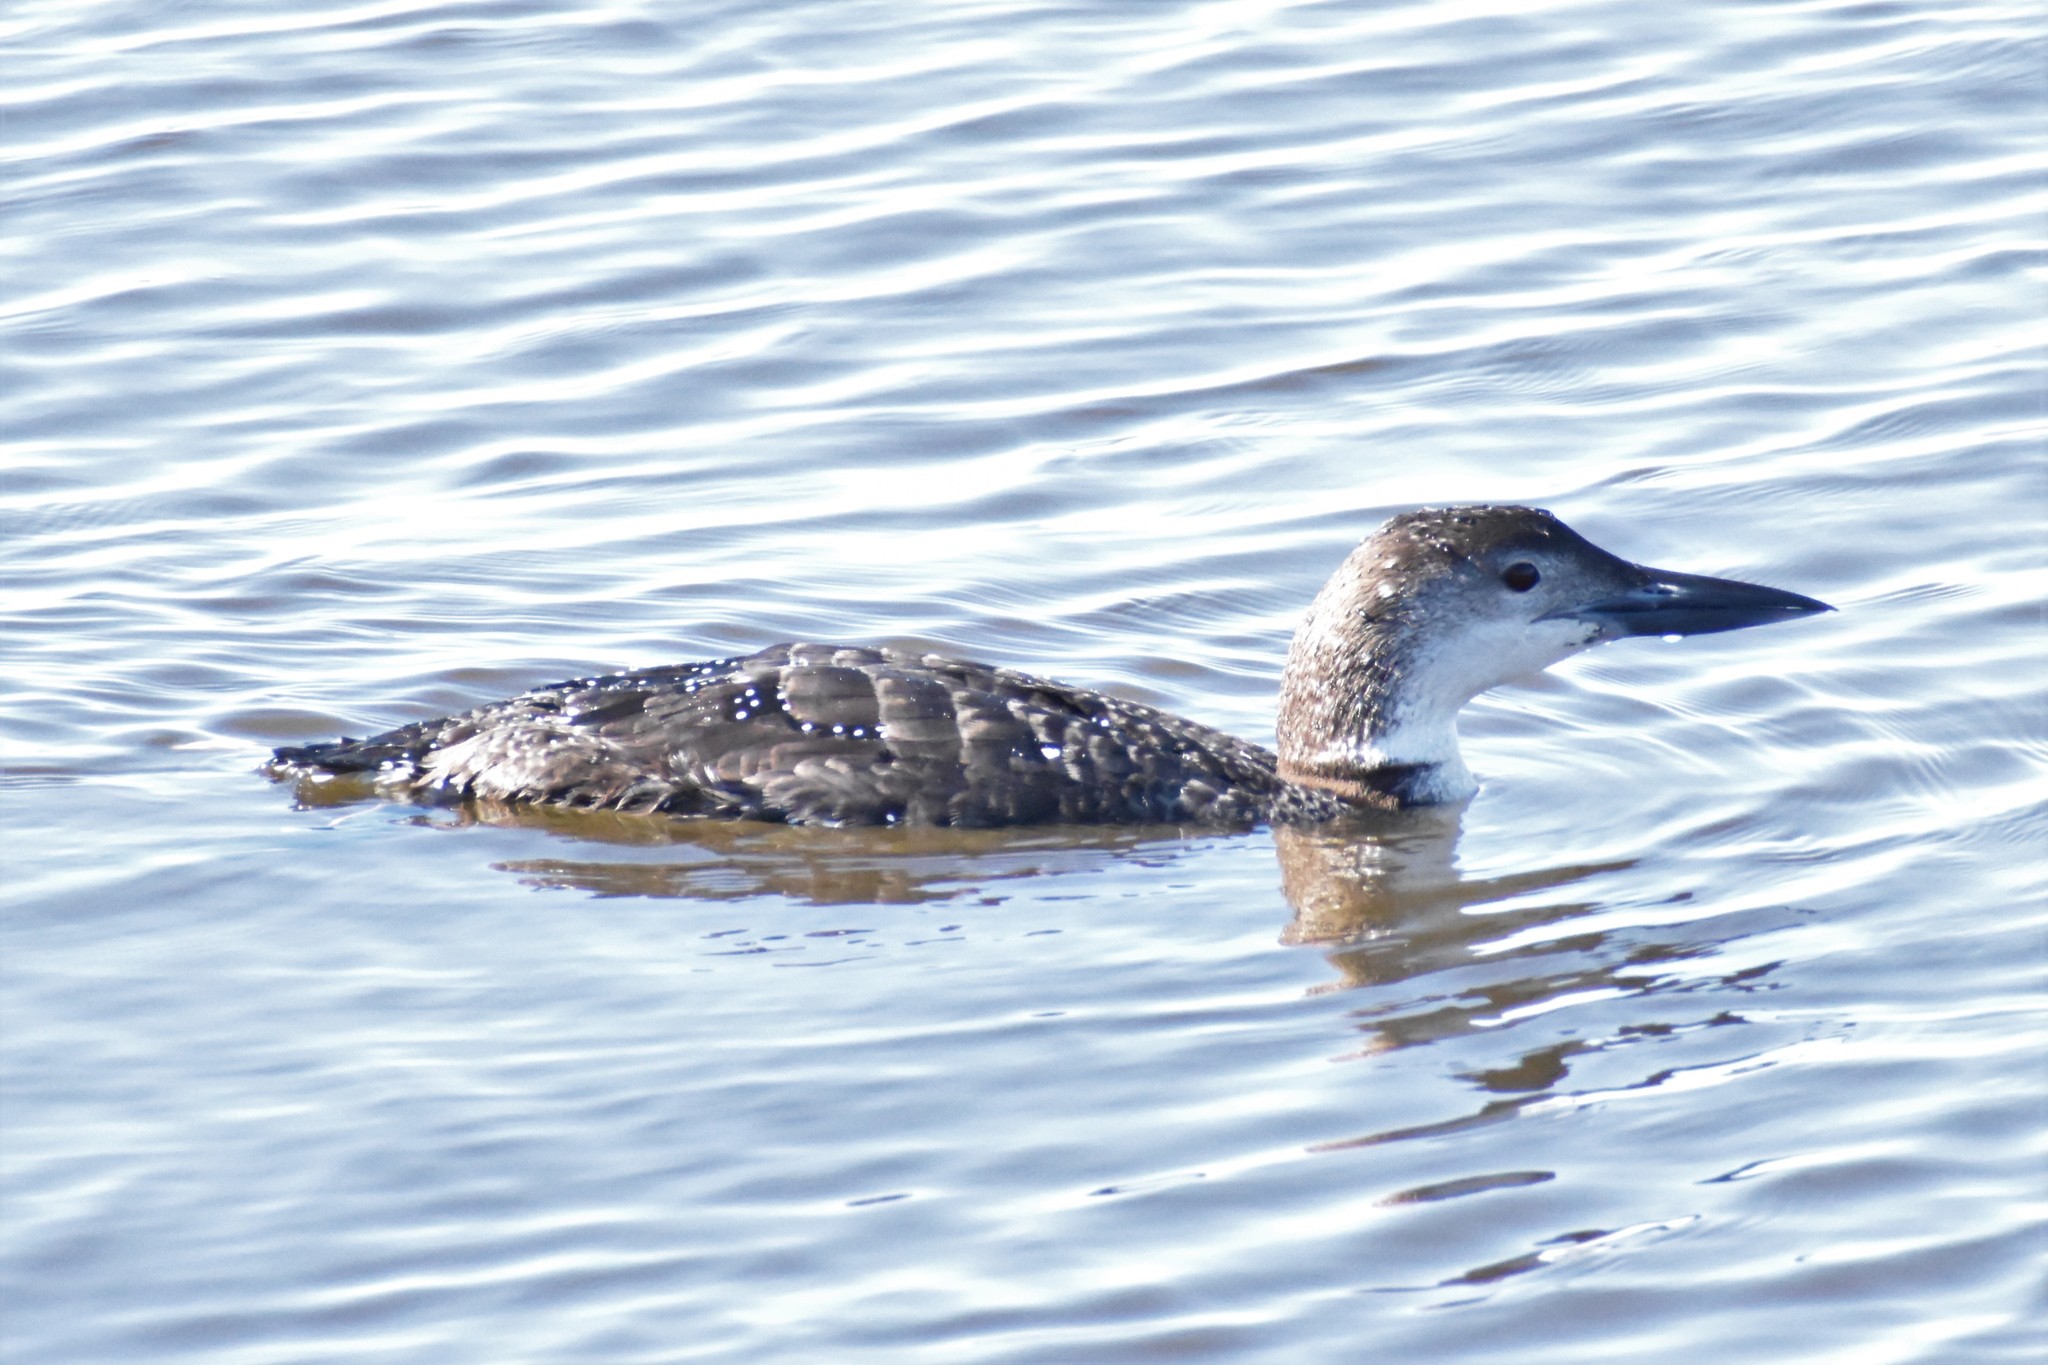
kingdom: Animalia
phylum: Chordata
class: Aves
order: Gaviiformes
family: Gaviidae
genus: Gavia
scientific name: Gavia immer
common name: Common loon
